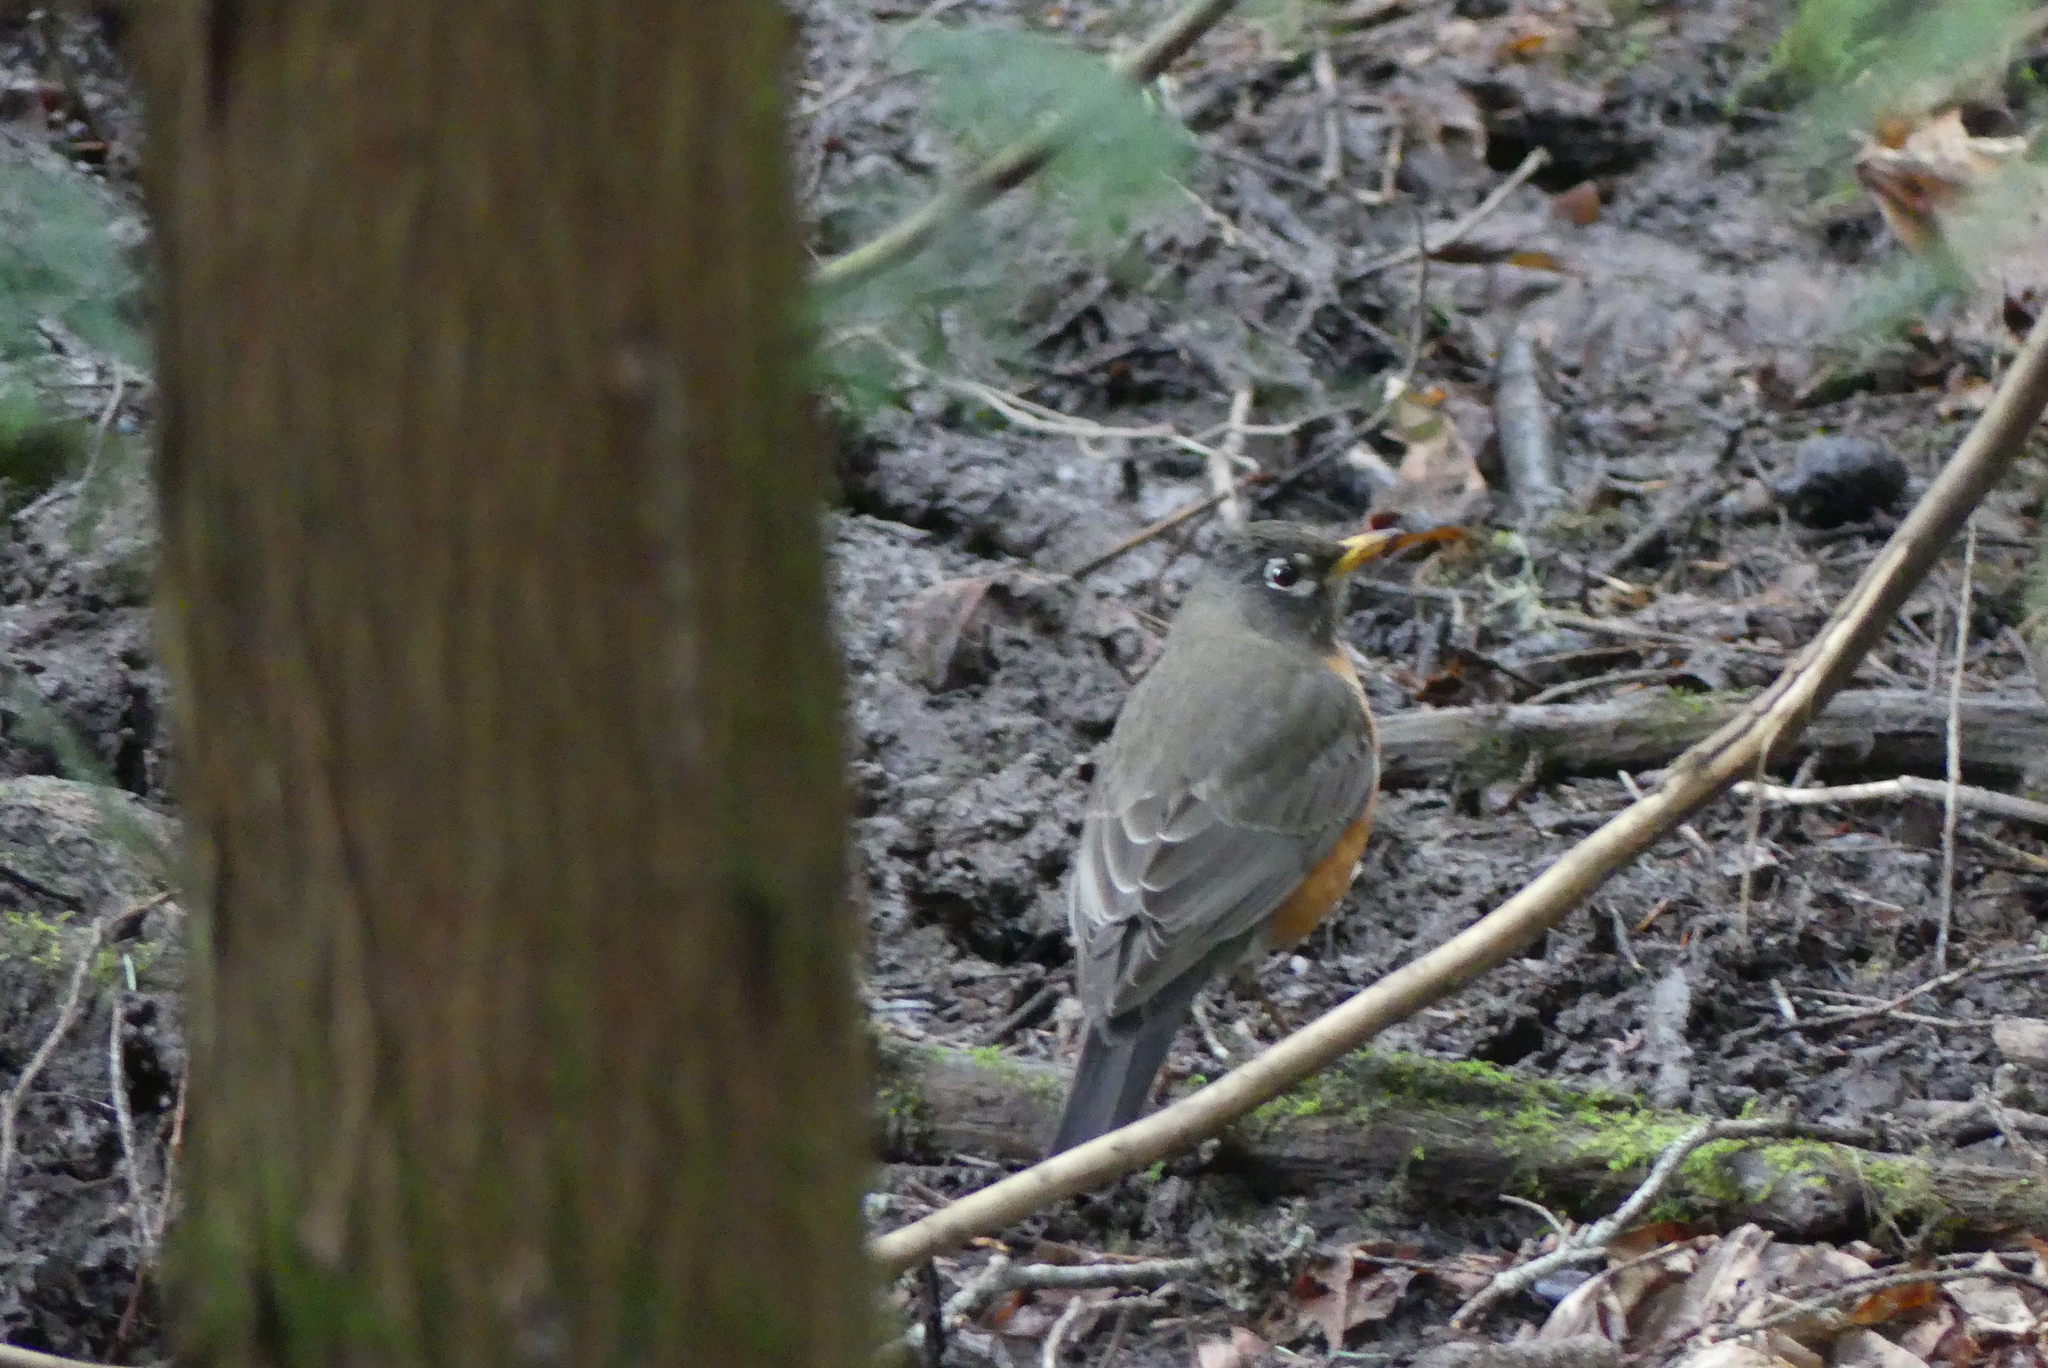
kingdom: Animalia
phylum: Chordata
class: Aves
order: Passeriformes
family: Turdidae
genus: Turdus
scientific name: Turdus migratorius
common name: American robin
